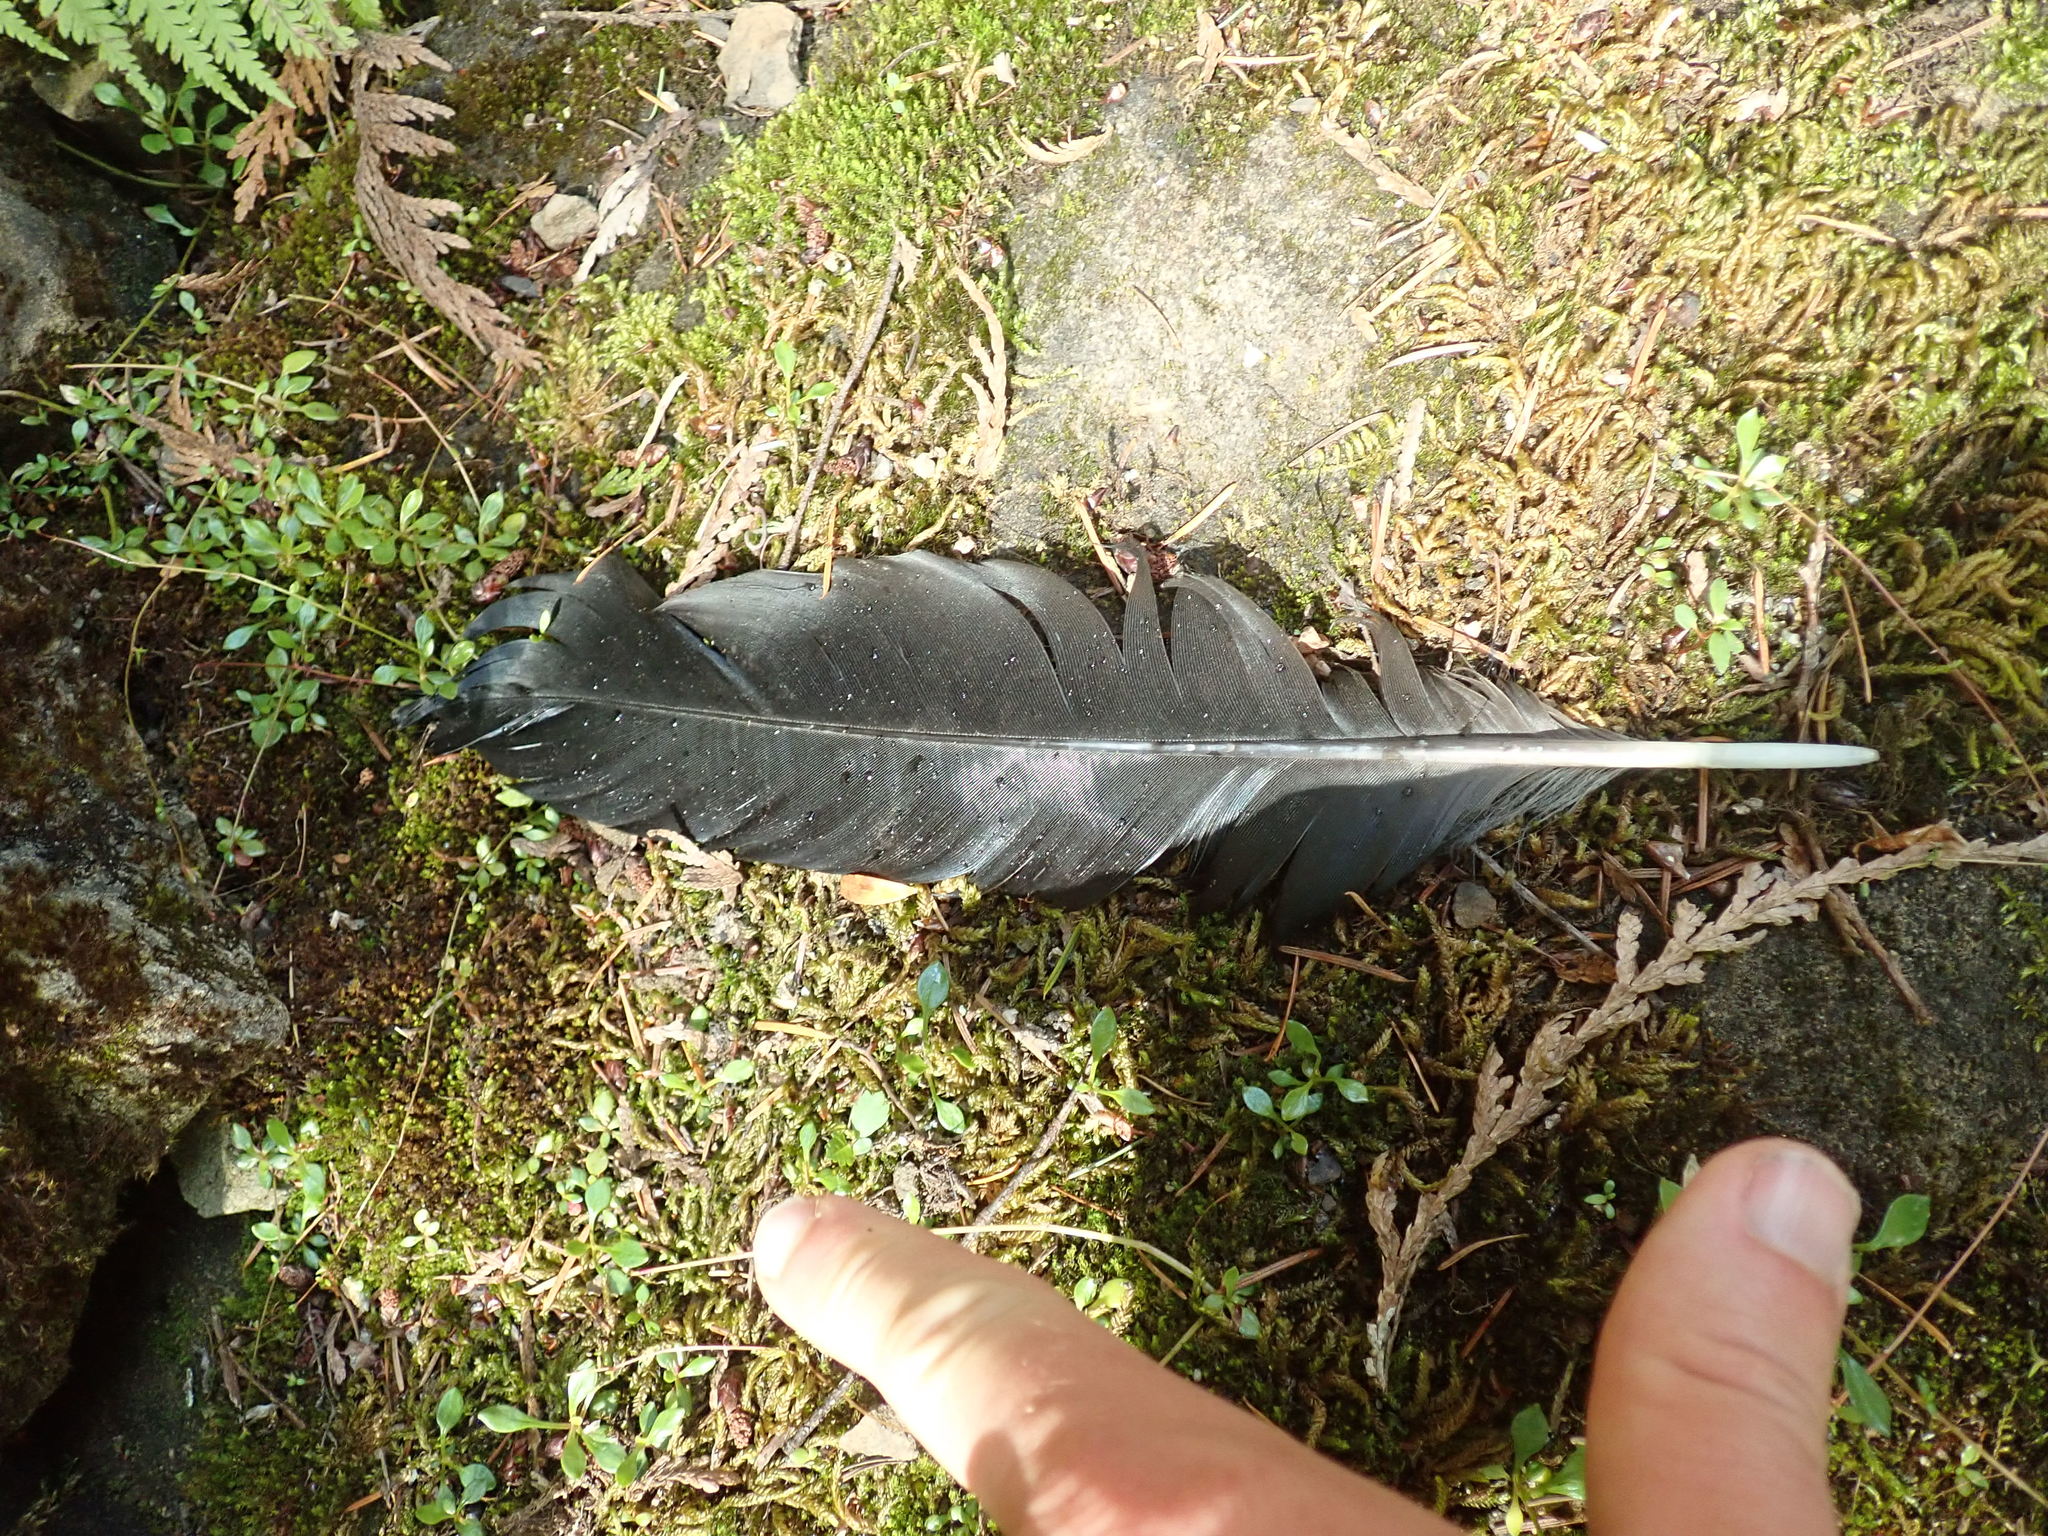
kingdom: Animalia
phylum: Chordata
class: Aves
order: Passeriformes
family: Corvidae
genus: Corvus
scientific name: Corvus corax
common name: Common raven
